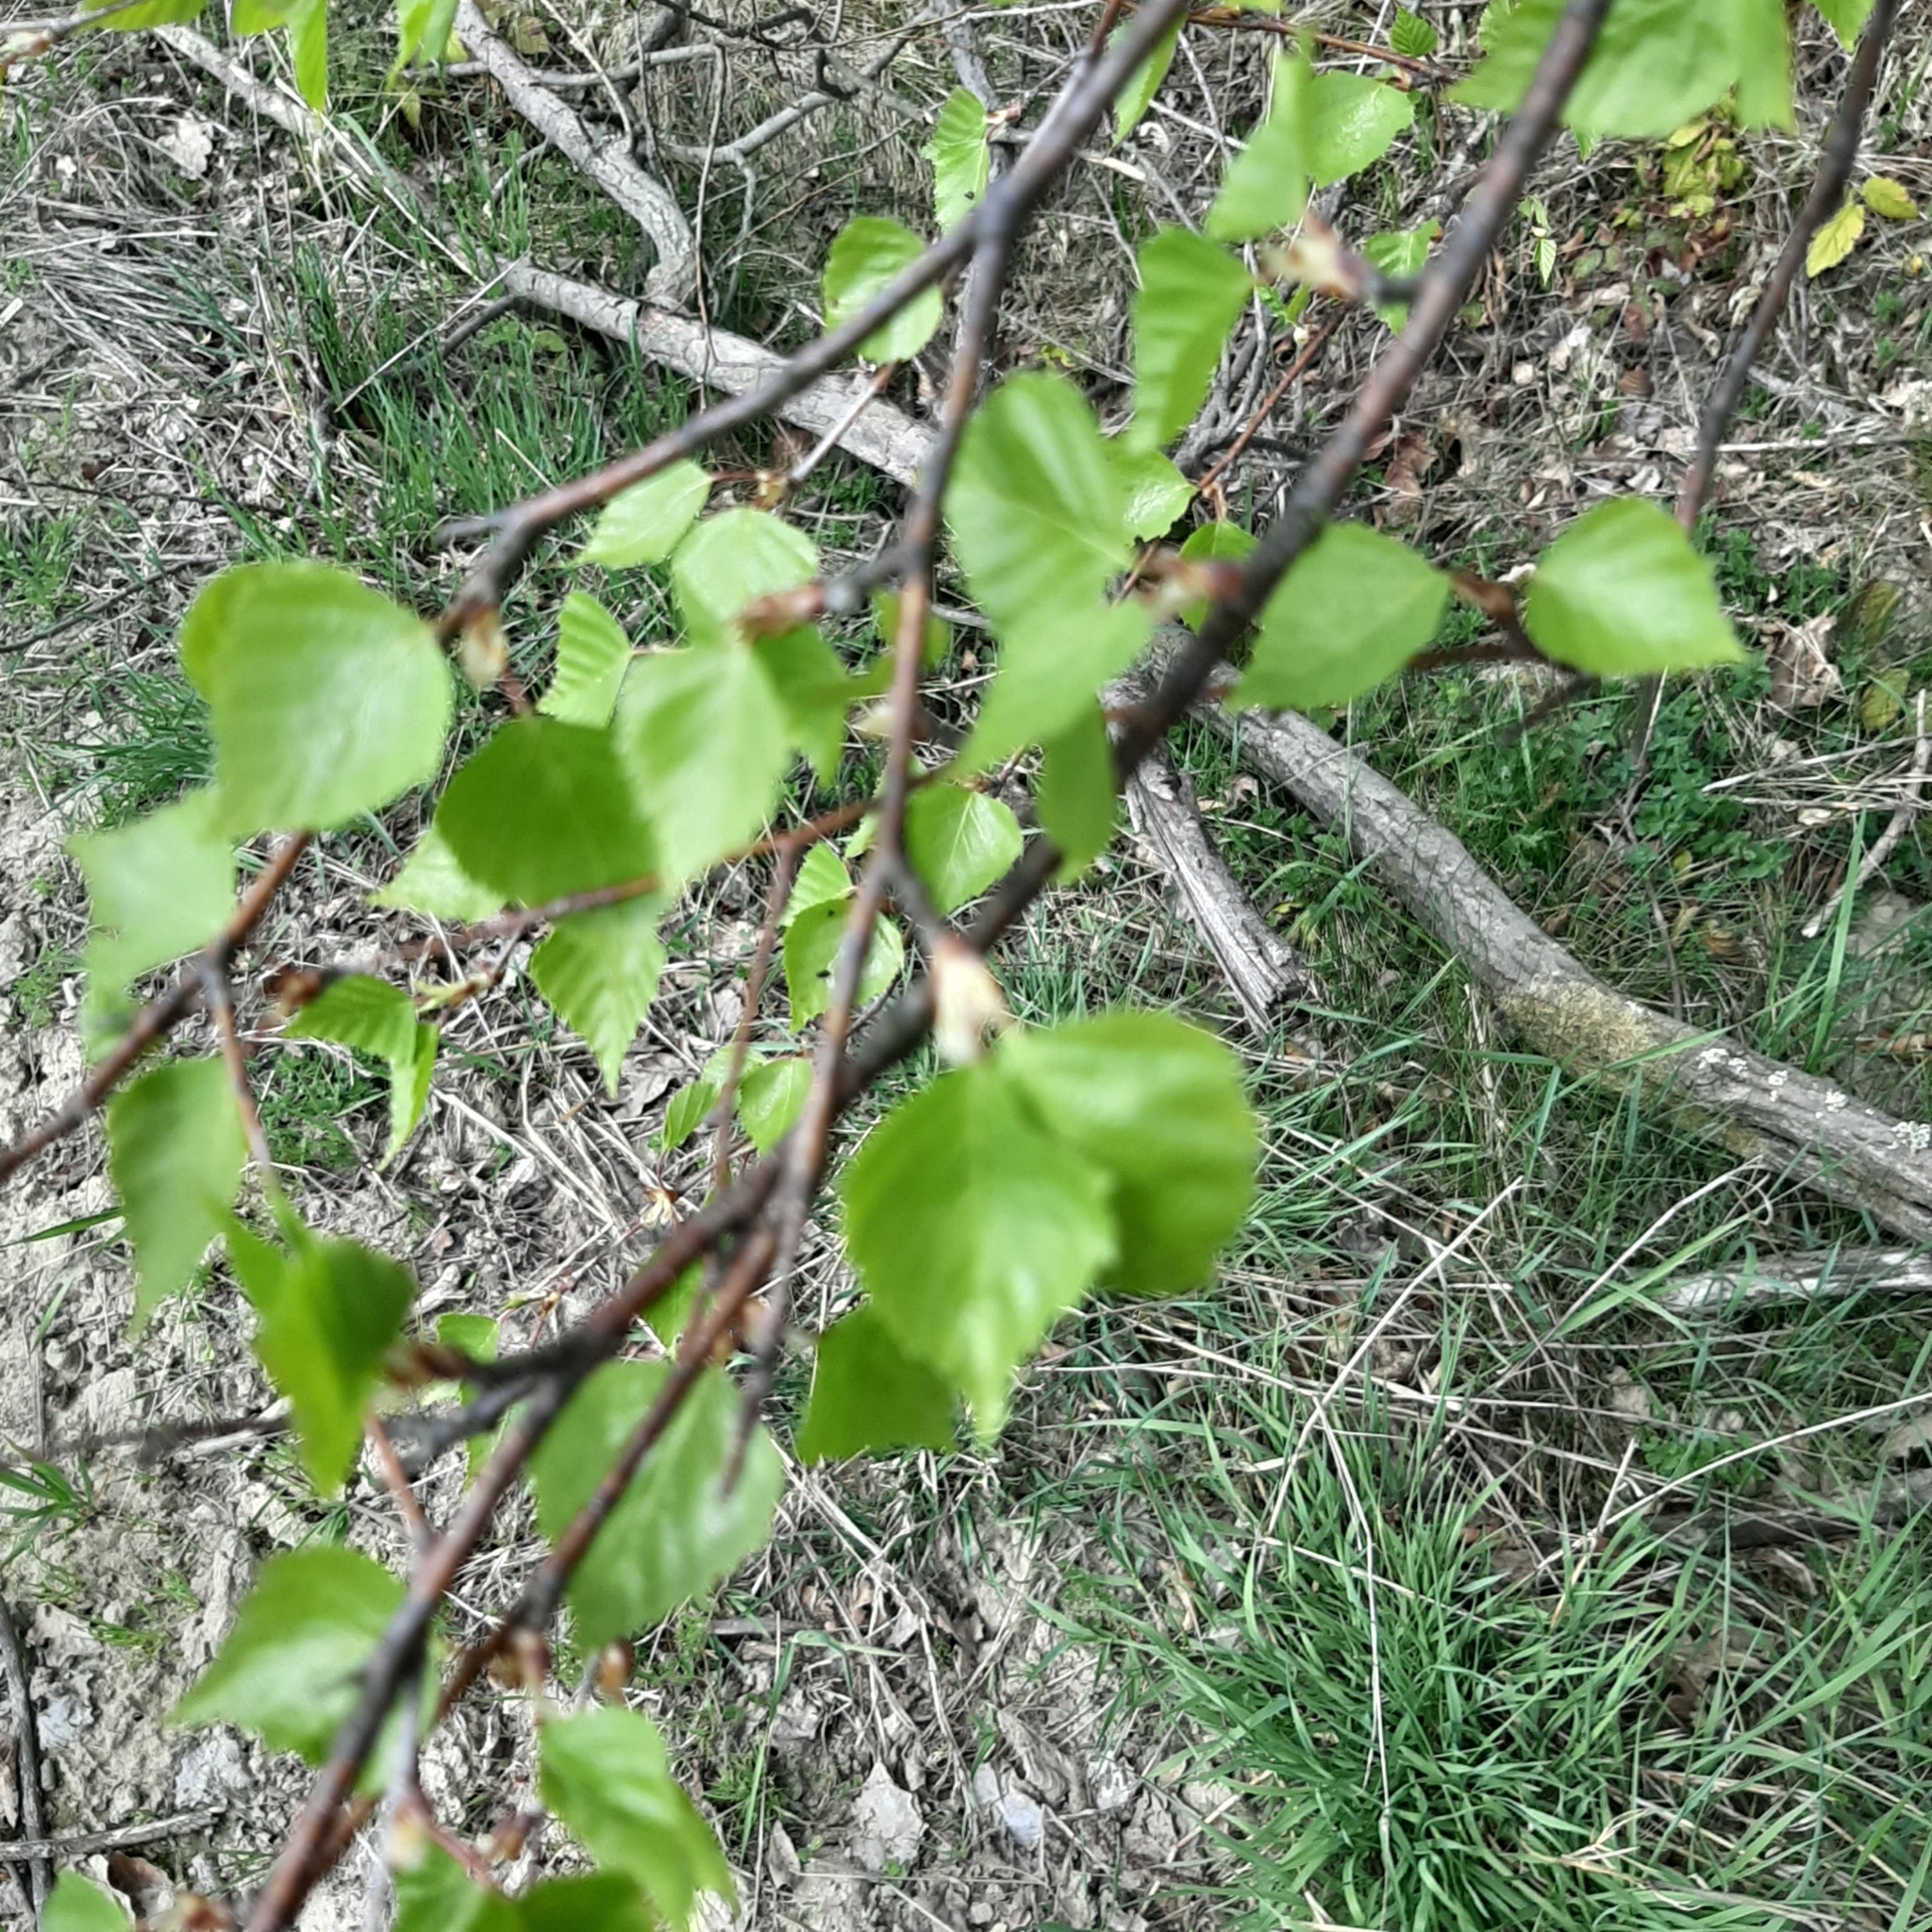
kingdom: Plantae
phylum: Tracheophyta
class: Magnoliopsida
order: Fagales
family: Betulaceae
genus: Betula
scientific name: Betula pendula
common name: Silver birch
